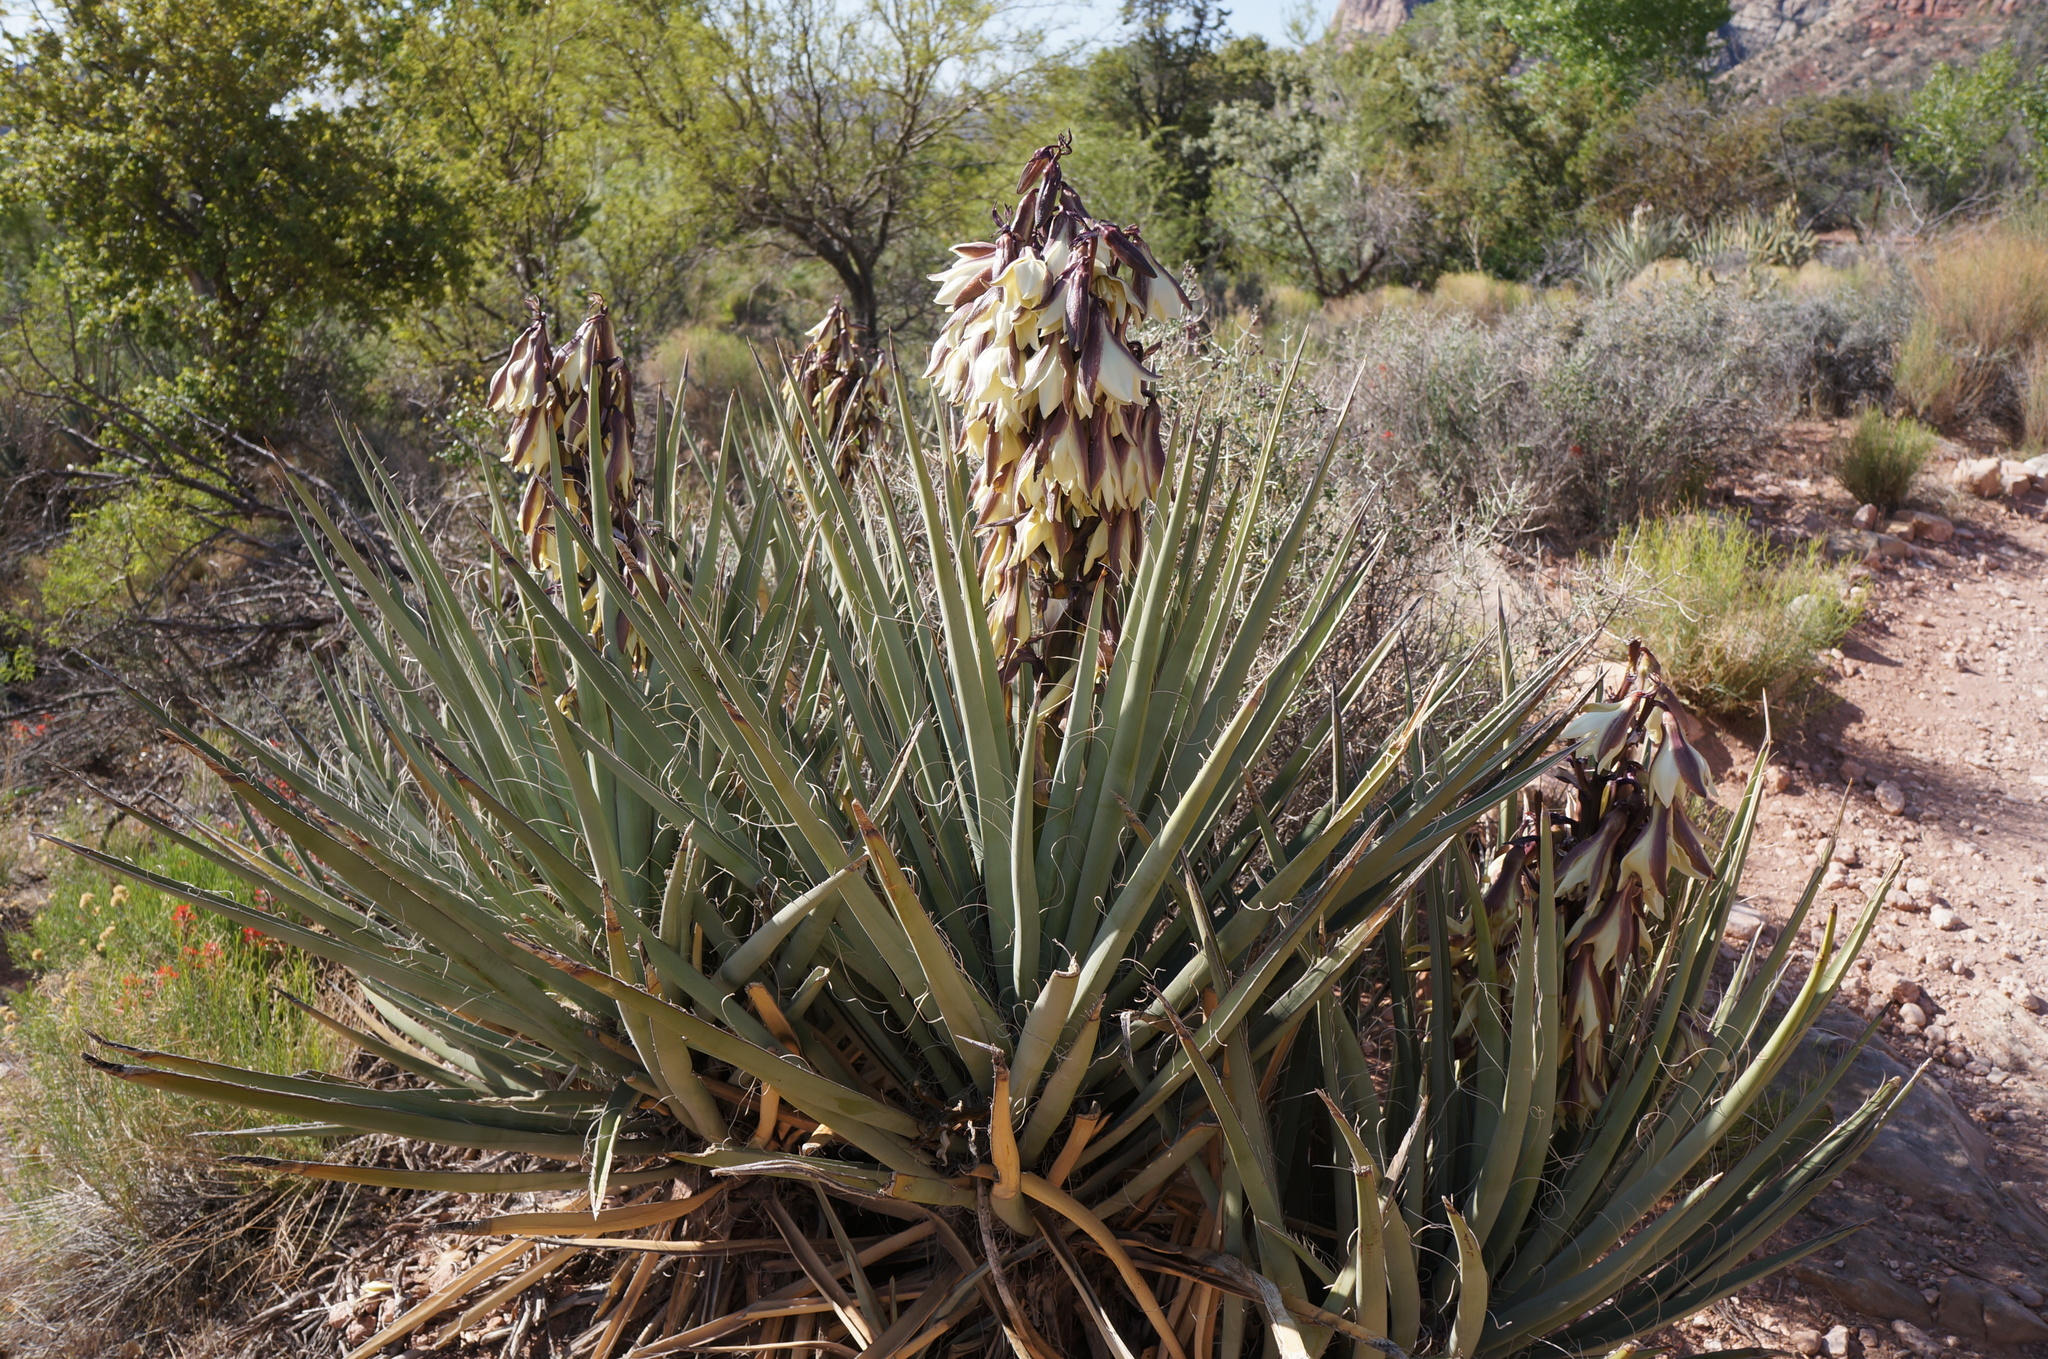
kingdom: Plantae
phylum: Tracheophyta
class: Liliopsida
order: Asparagales
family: Asparagaceae
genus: Yucca
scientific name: Yucca baccata
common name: Banana yucca
